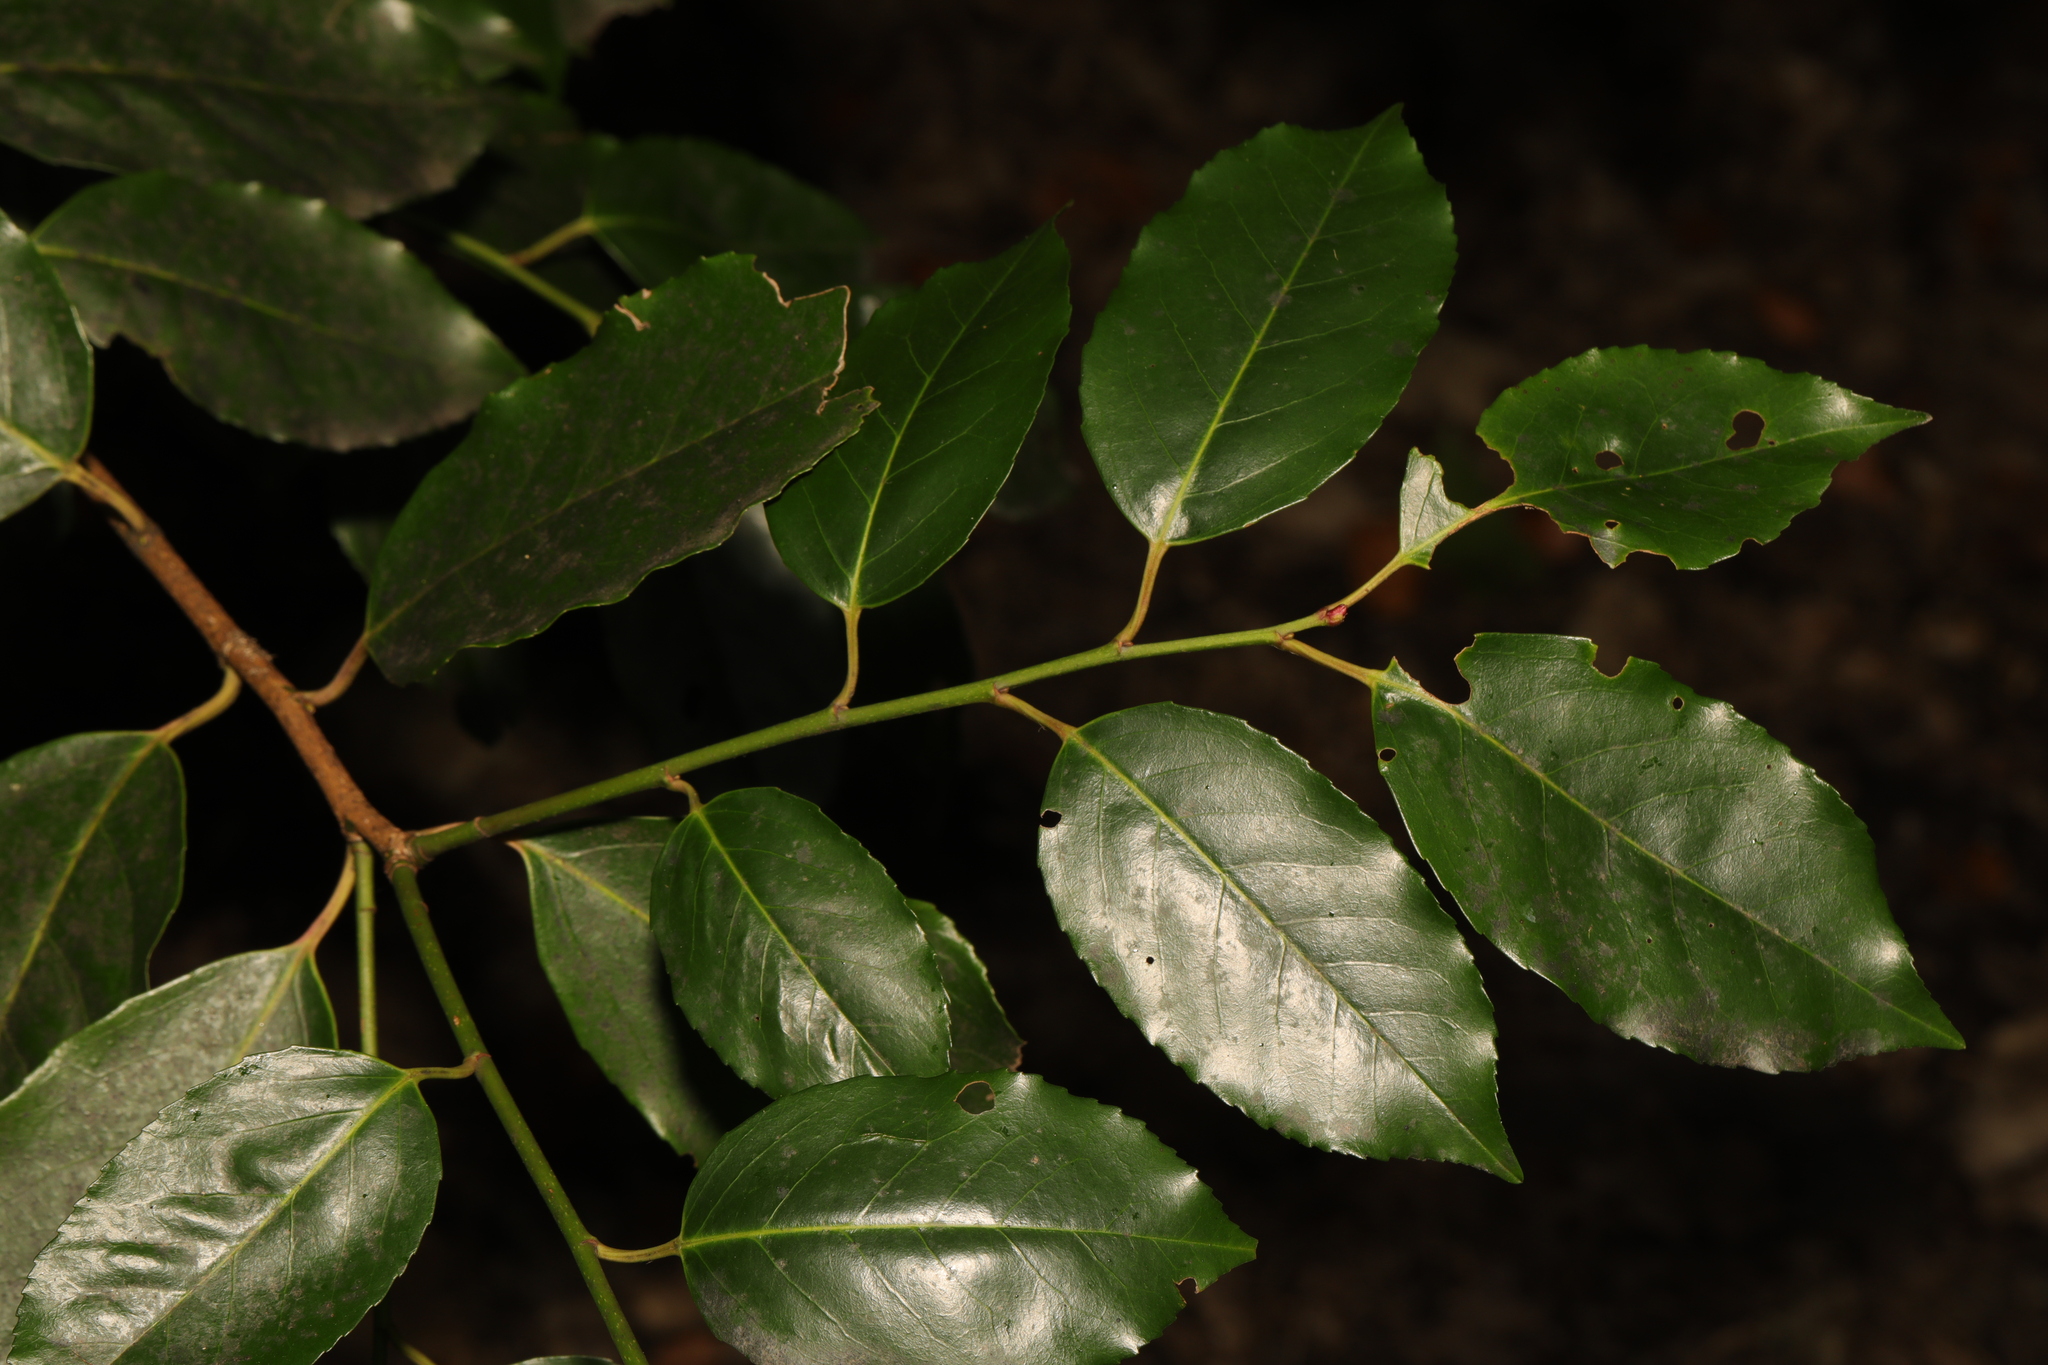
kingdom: Plantae
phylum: Tracheophyta
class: Magnoliopsida
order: Rosales
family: Rosaceae
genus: Prunus
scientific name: Prunus lusitanica
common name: Portugal laurel
